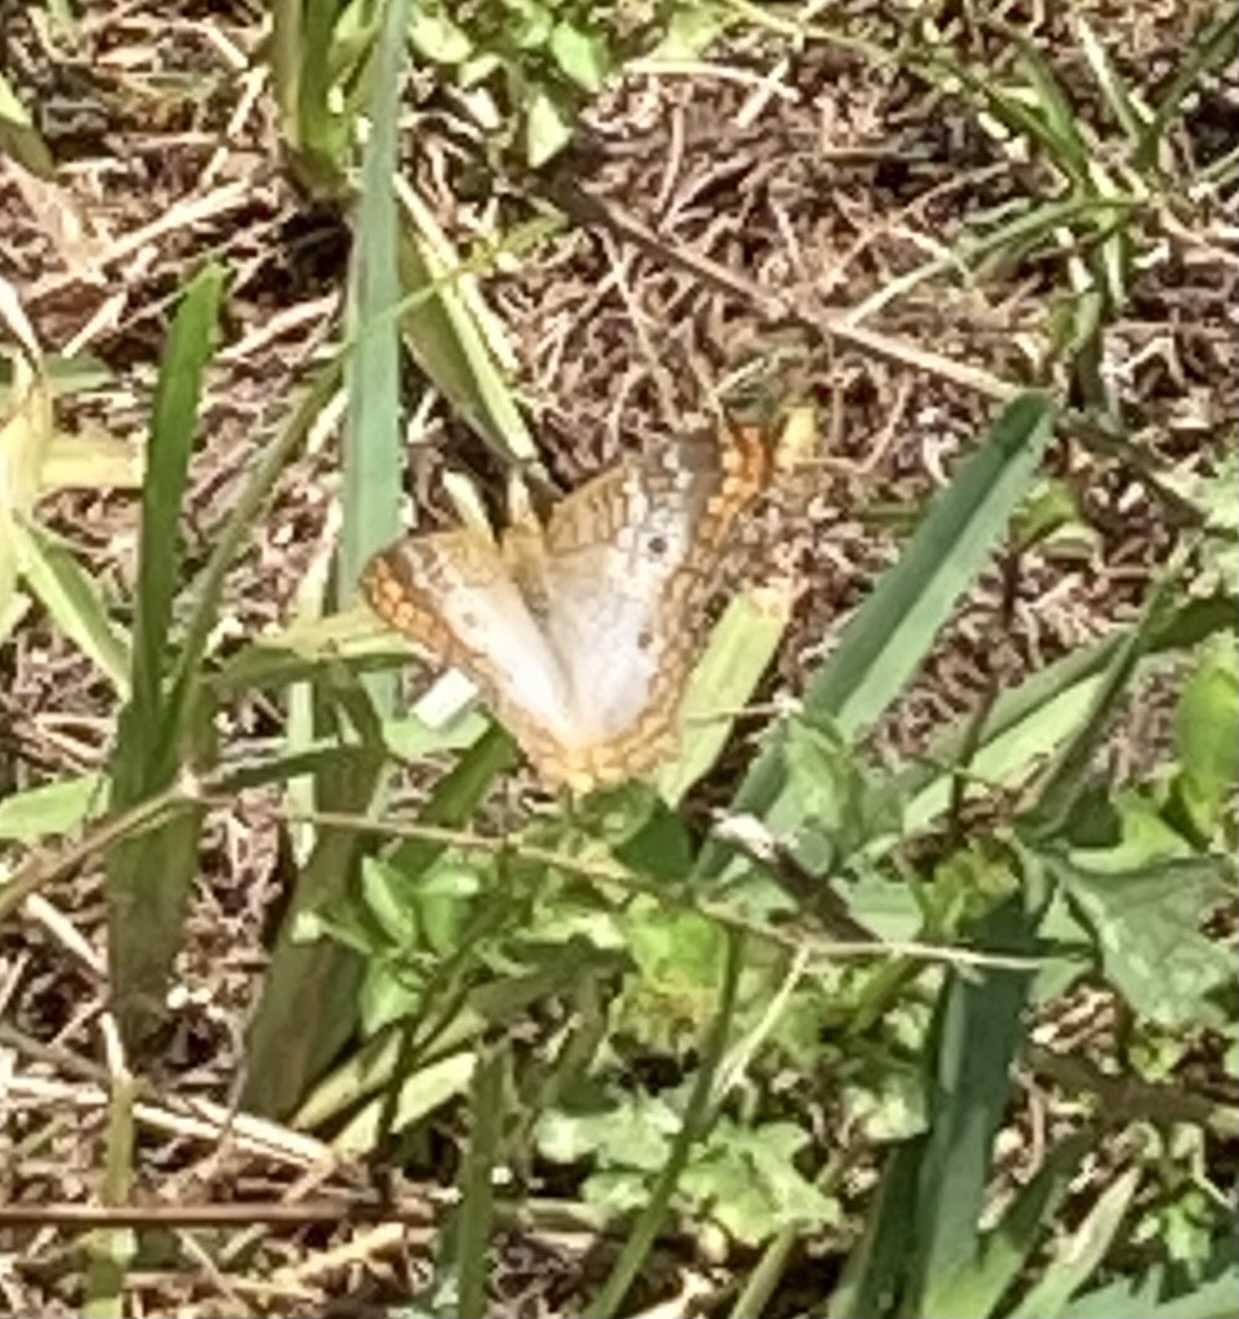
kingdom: Animalia
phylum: Arthropoda
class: Insecta
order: Lepidoptera
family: Nymphalidae
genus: Anartia
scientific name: Anartia jatrophae
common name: White peacock
